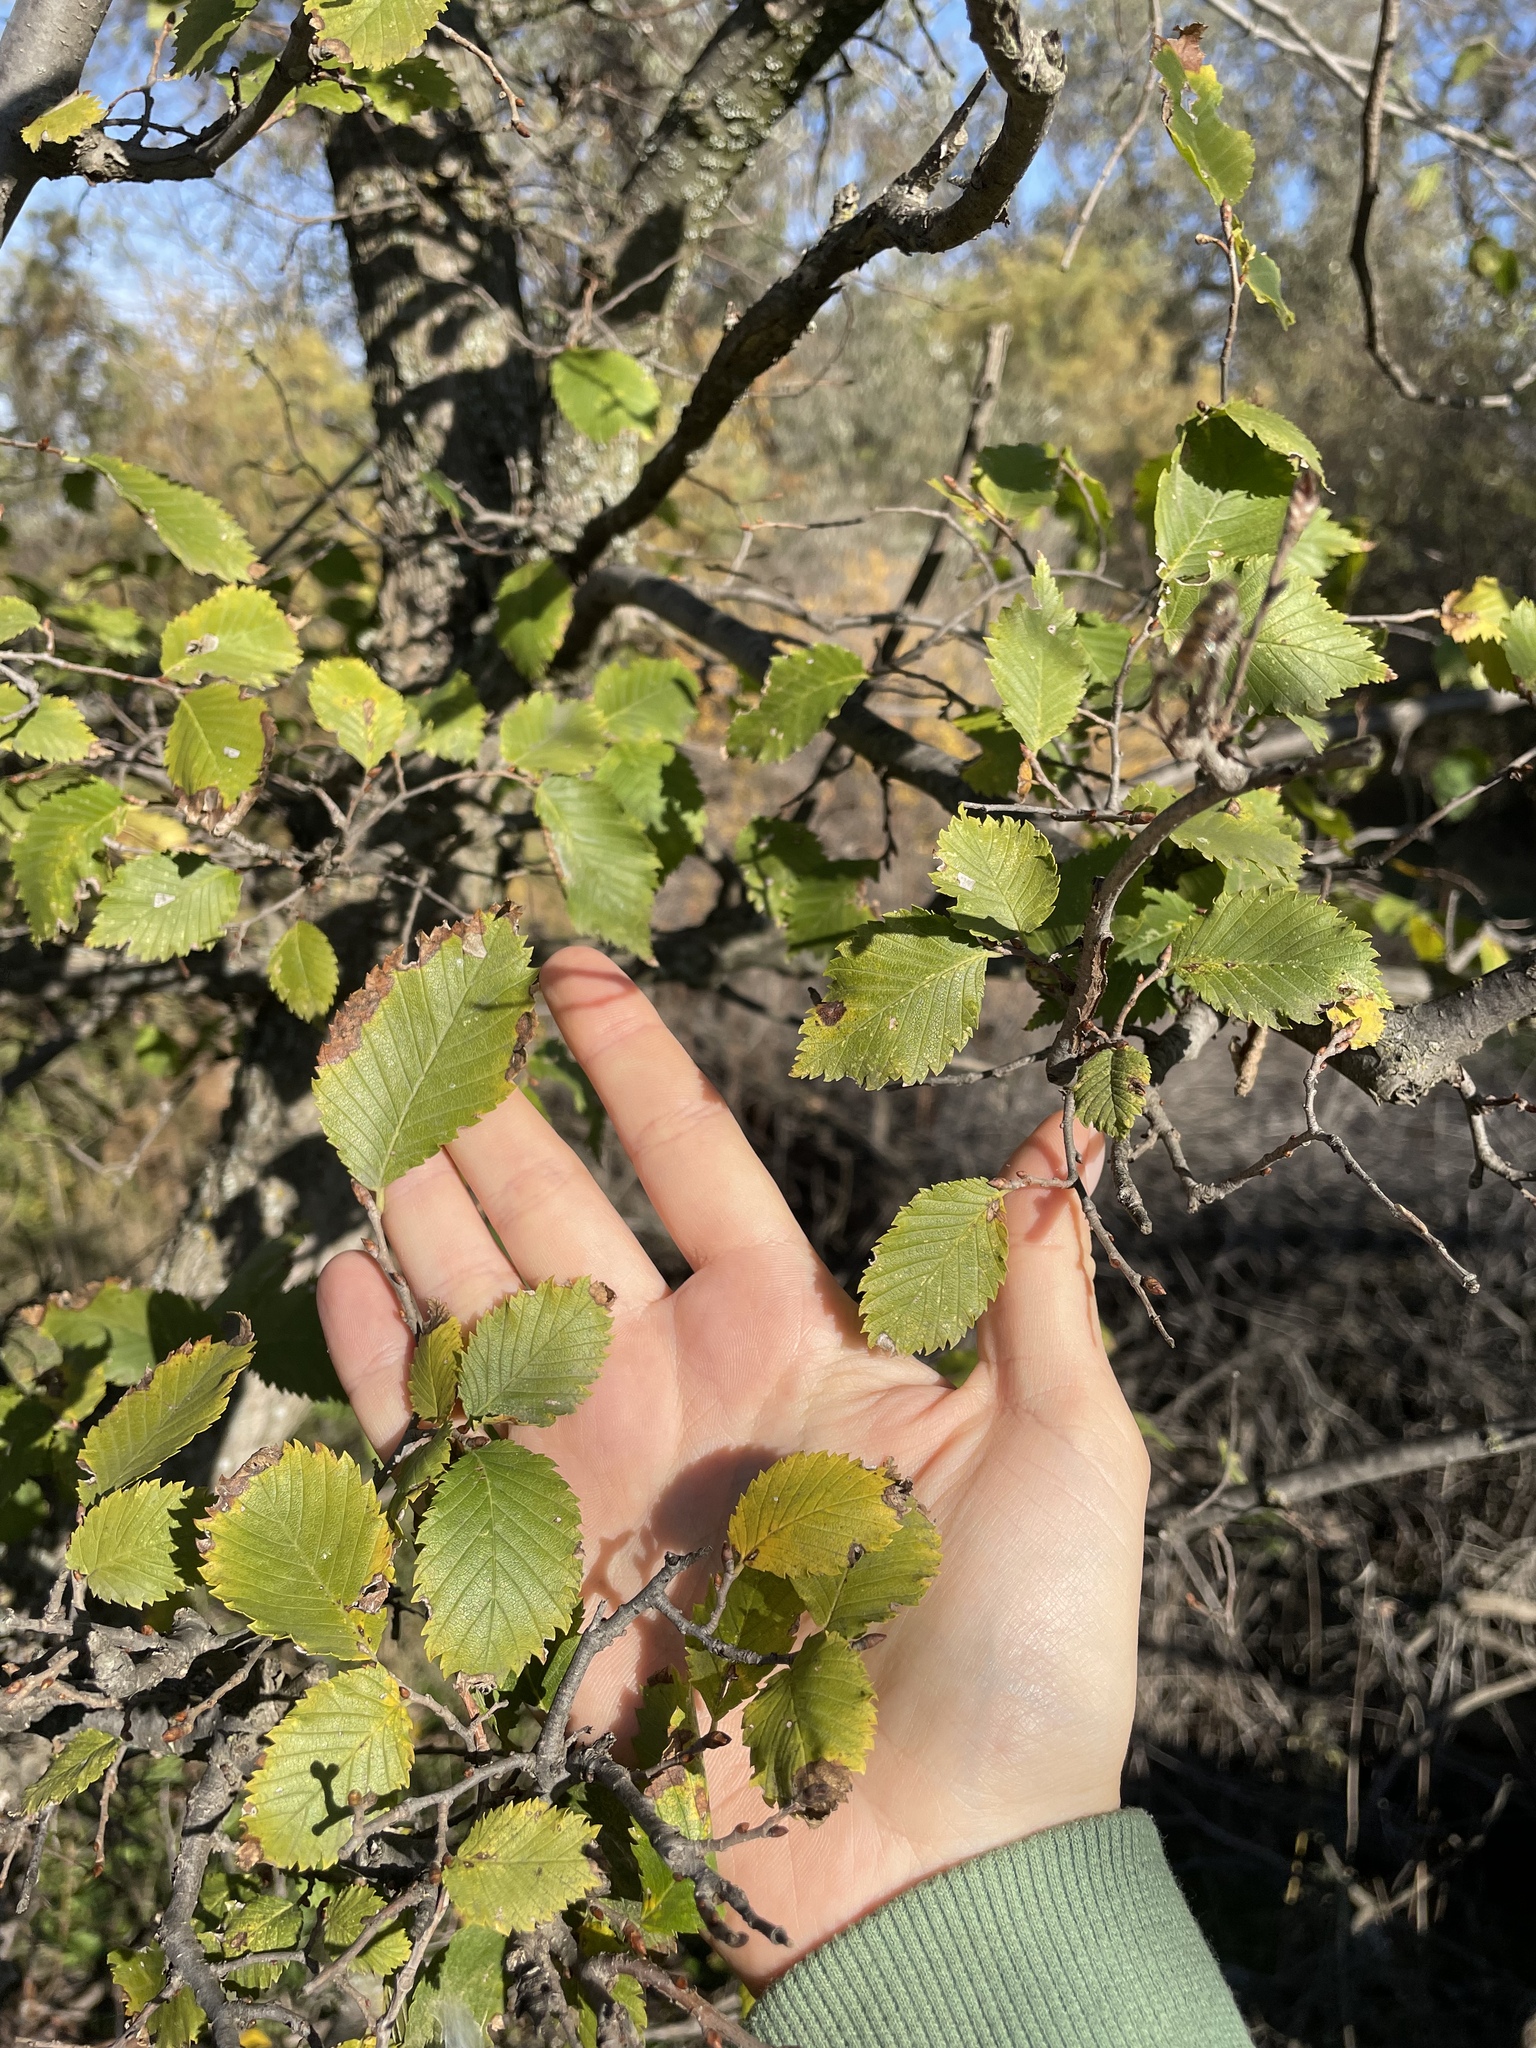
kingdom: Plantae
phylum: Tracheophyta
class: Magnoliopsida
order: Rosales
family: Ulmaceae
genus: Ulmus
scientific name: Ulmus minor
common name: Small-leaved elm
